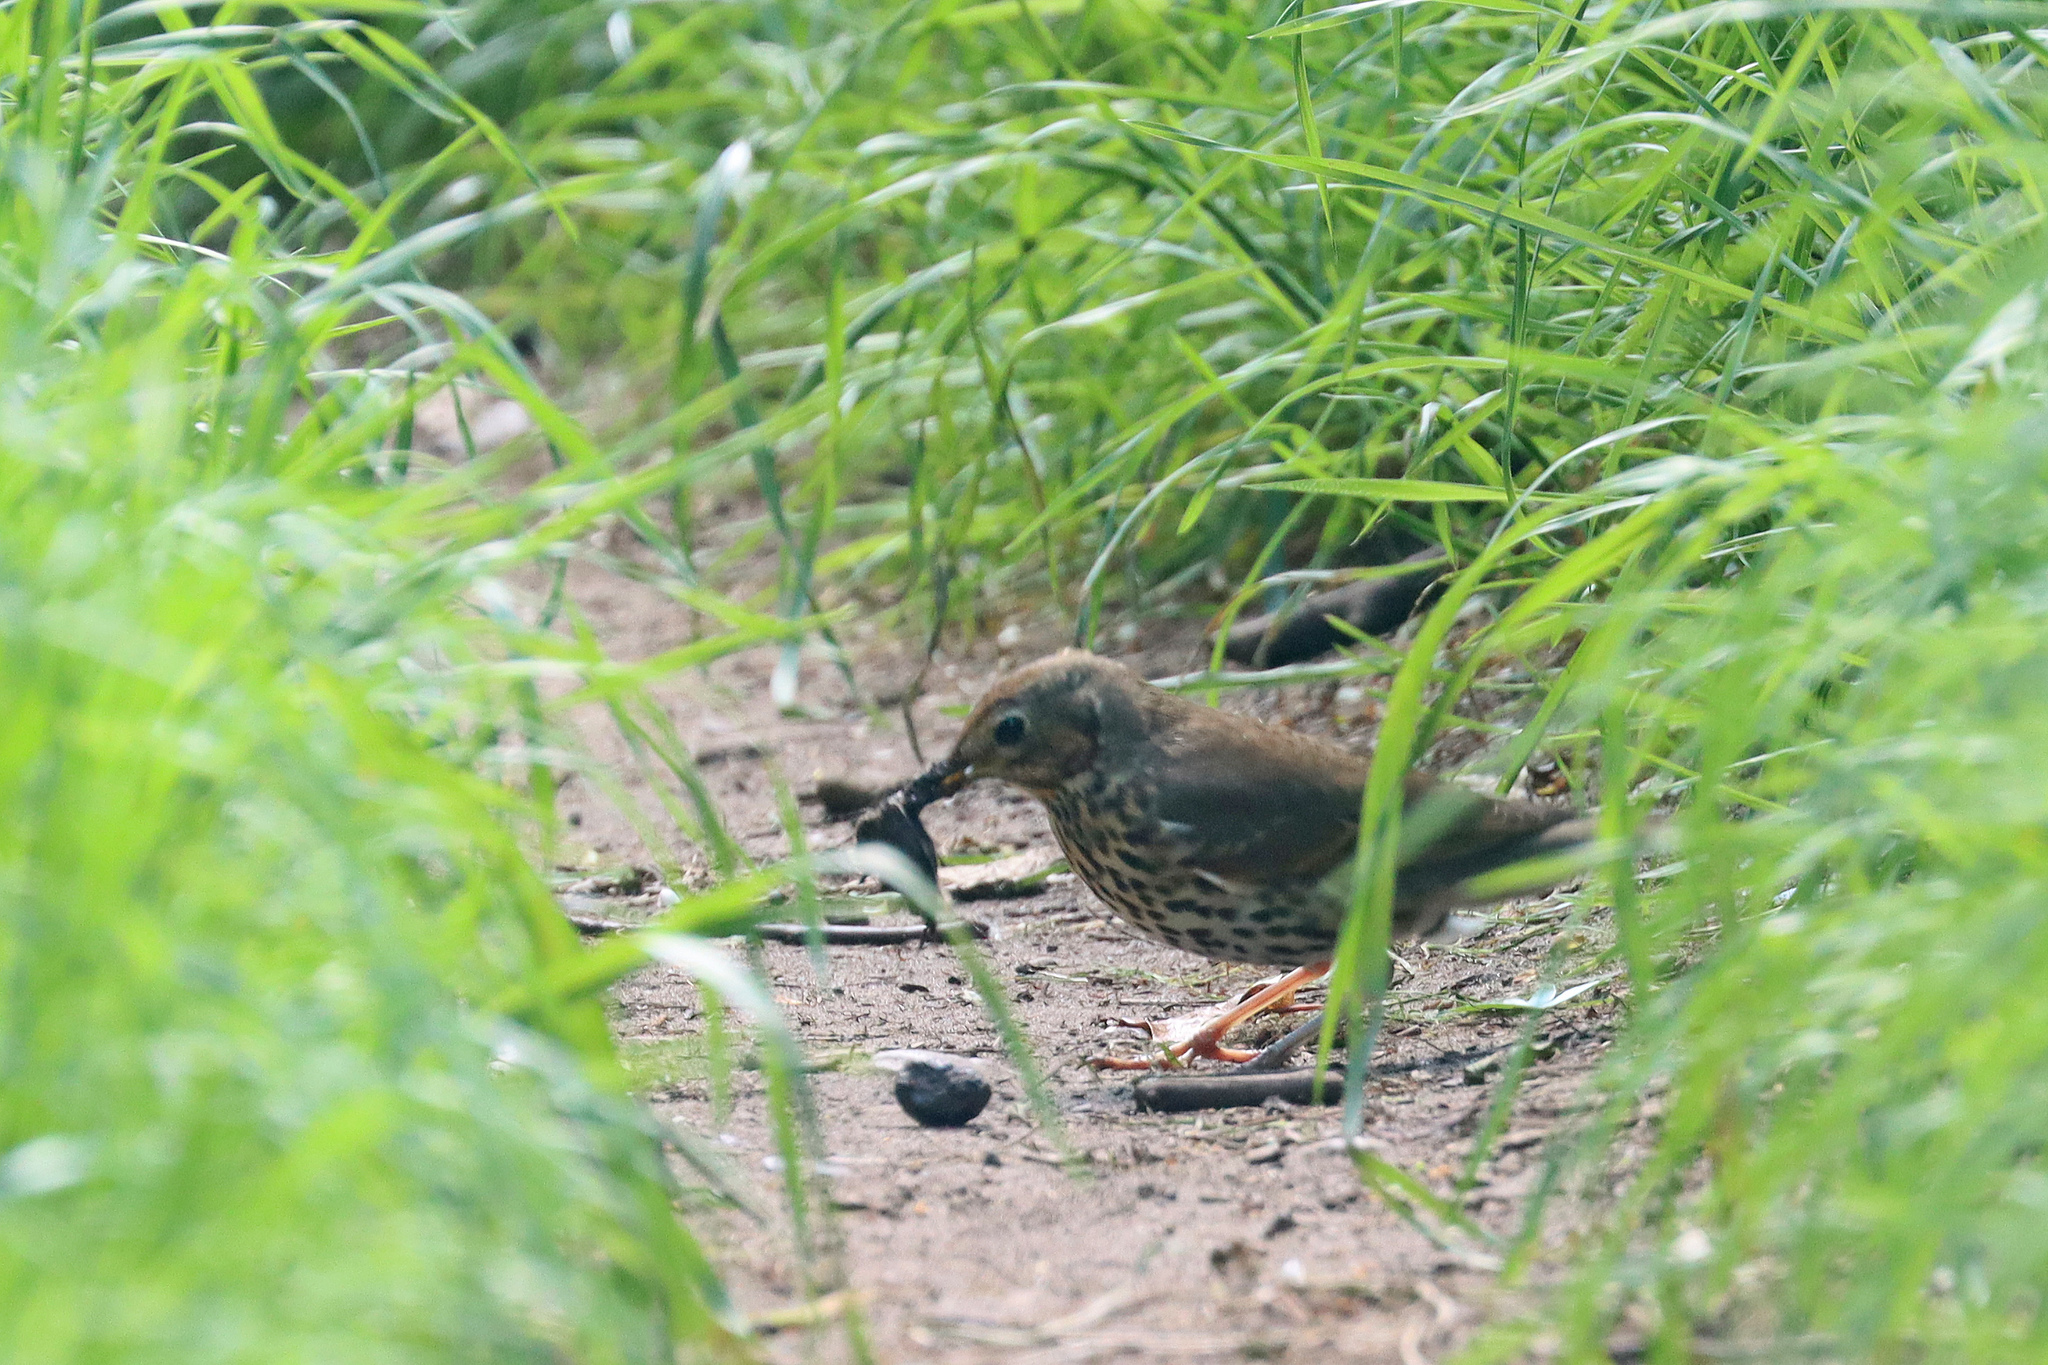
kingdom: Animalia
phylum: Chordata
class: Aves
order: Passeriformes
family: Turdidae
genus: Turdus
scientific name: Turdus philomelos
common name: Song thrush
